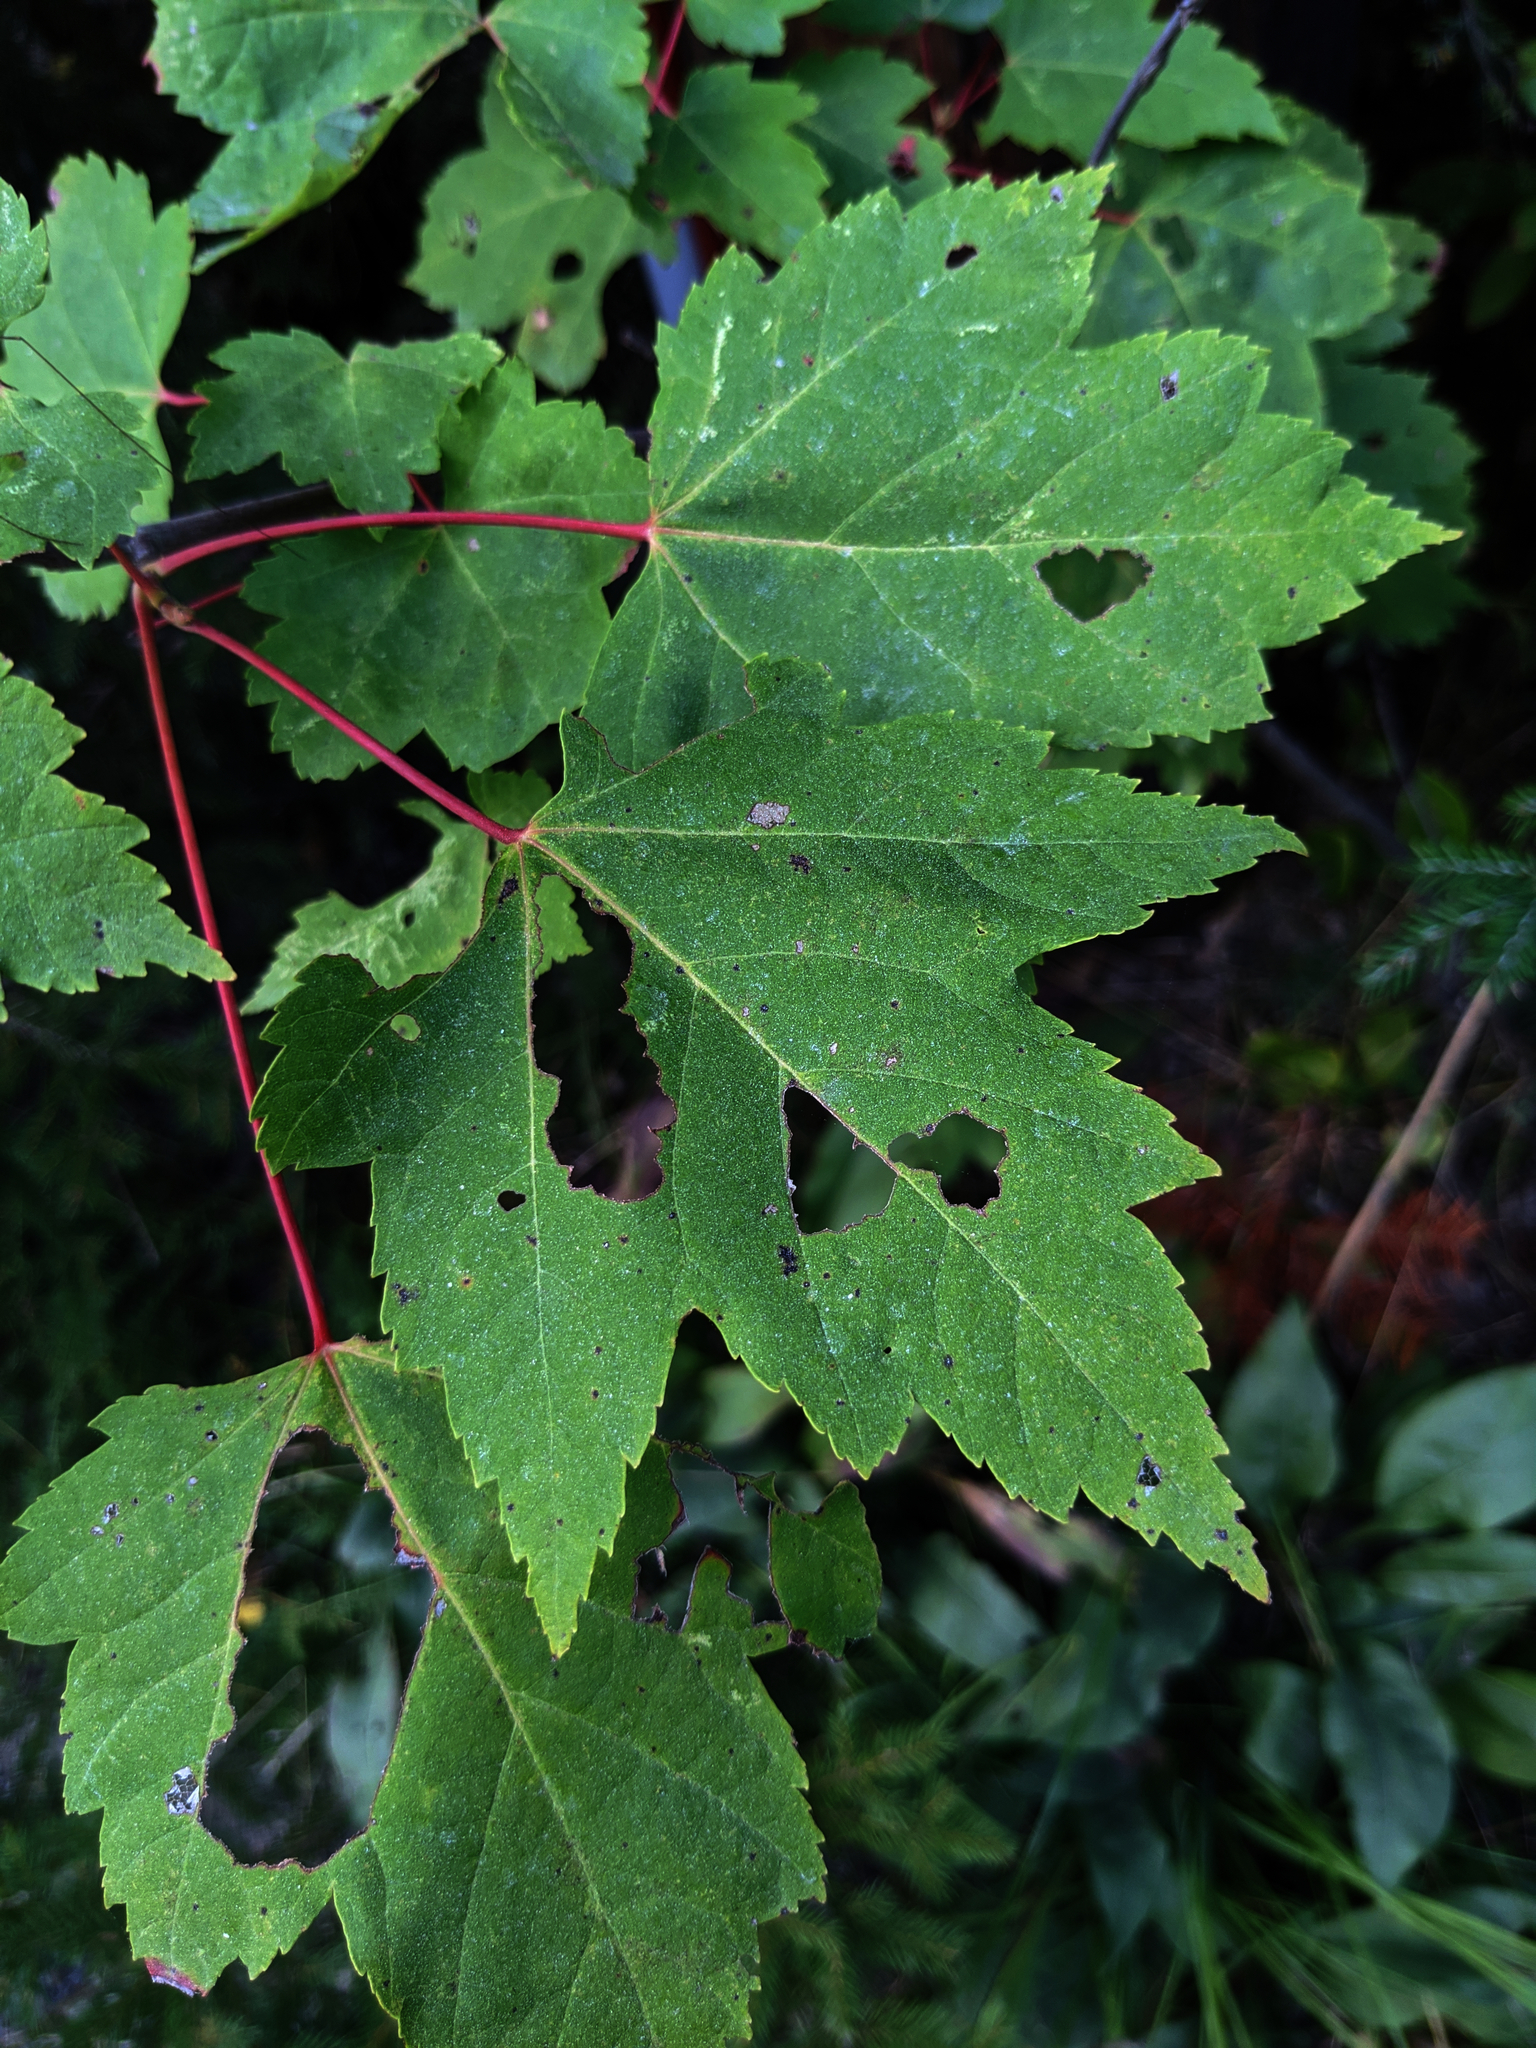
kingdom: Plantae
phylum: Tracheophyta
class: Magnoliopsida
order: Sapindales
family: Sapindaceae
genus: Acer
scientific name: Acer rubrum
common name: Red maple
